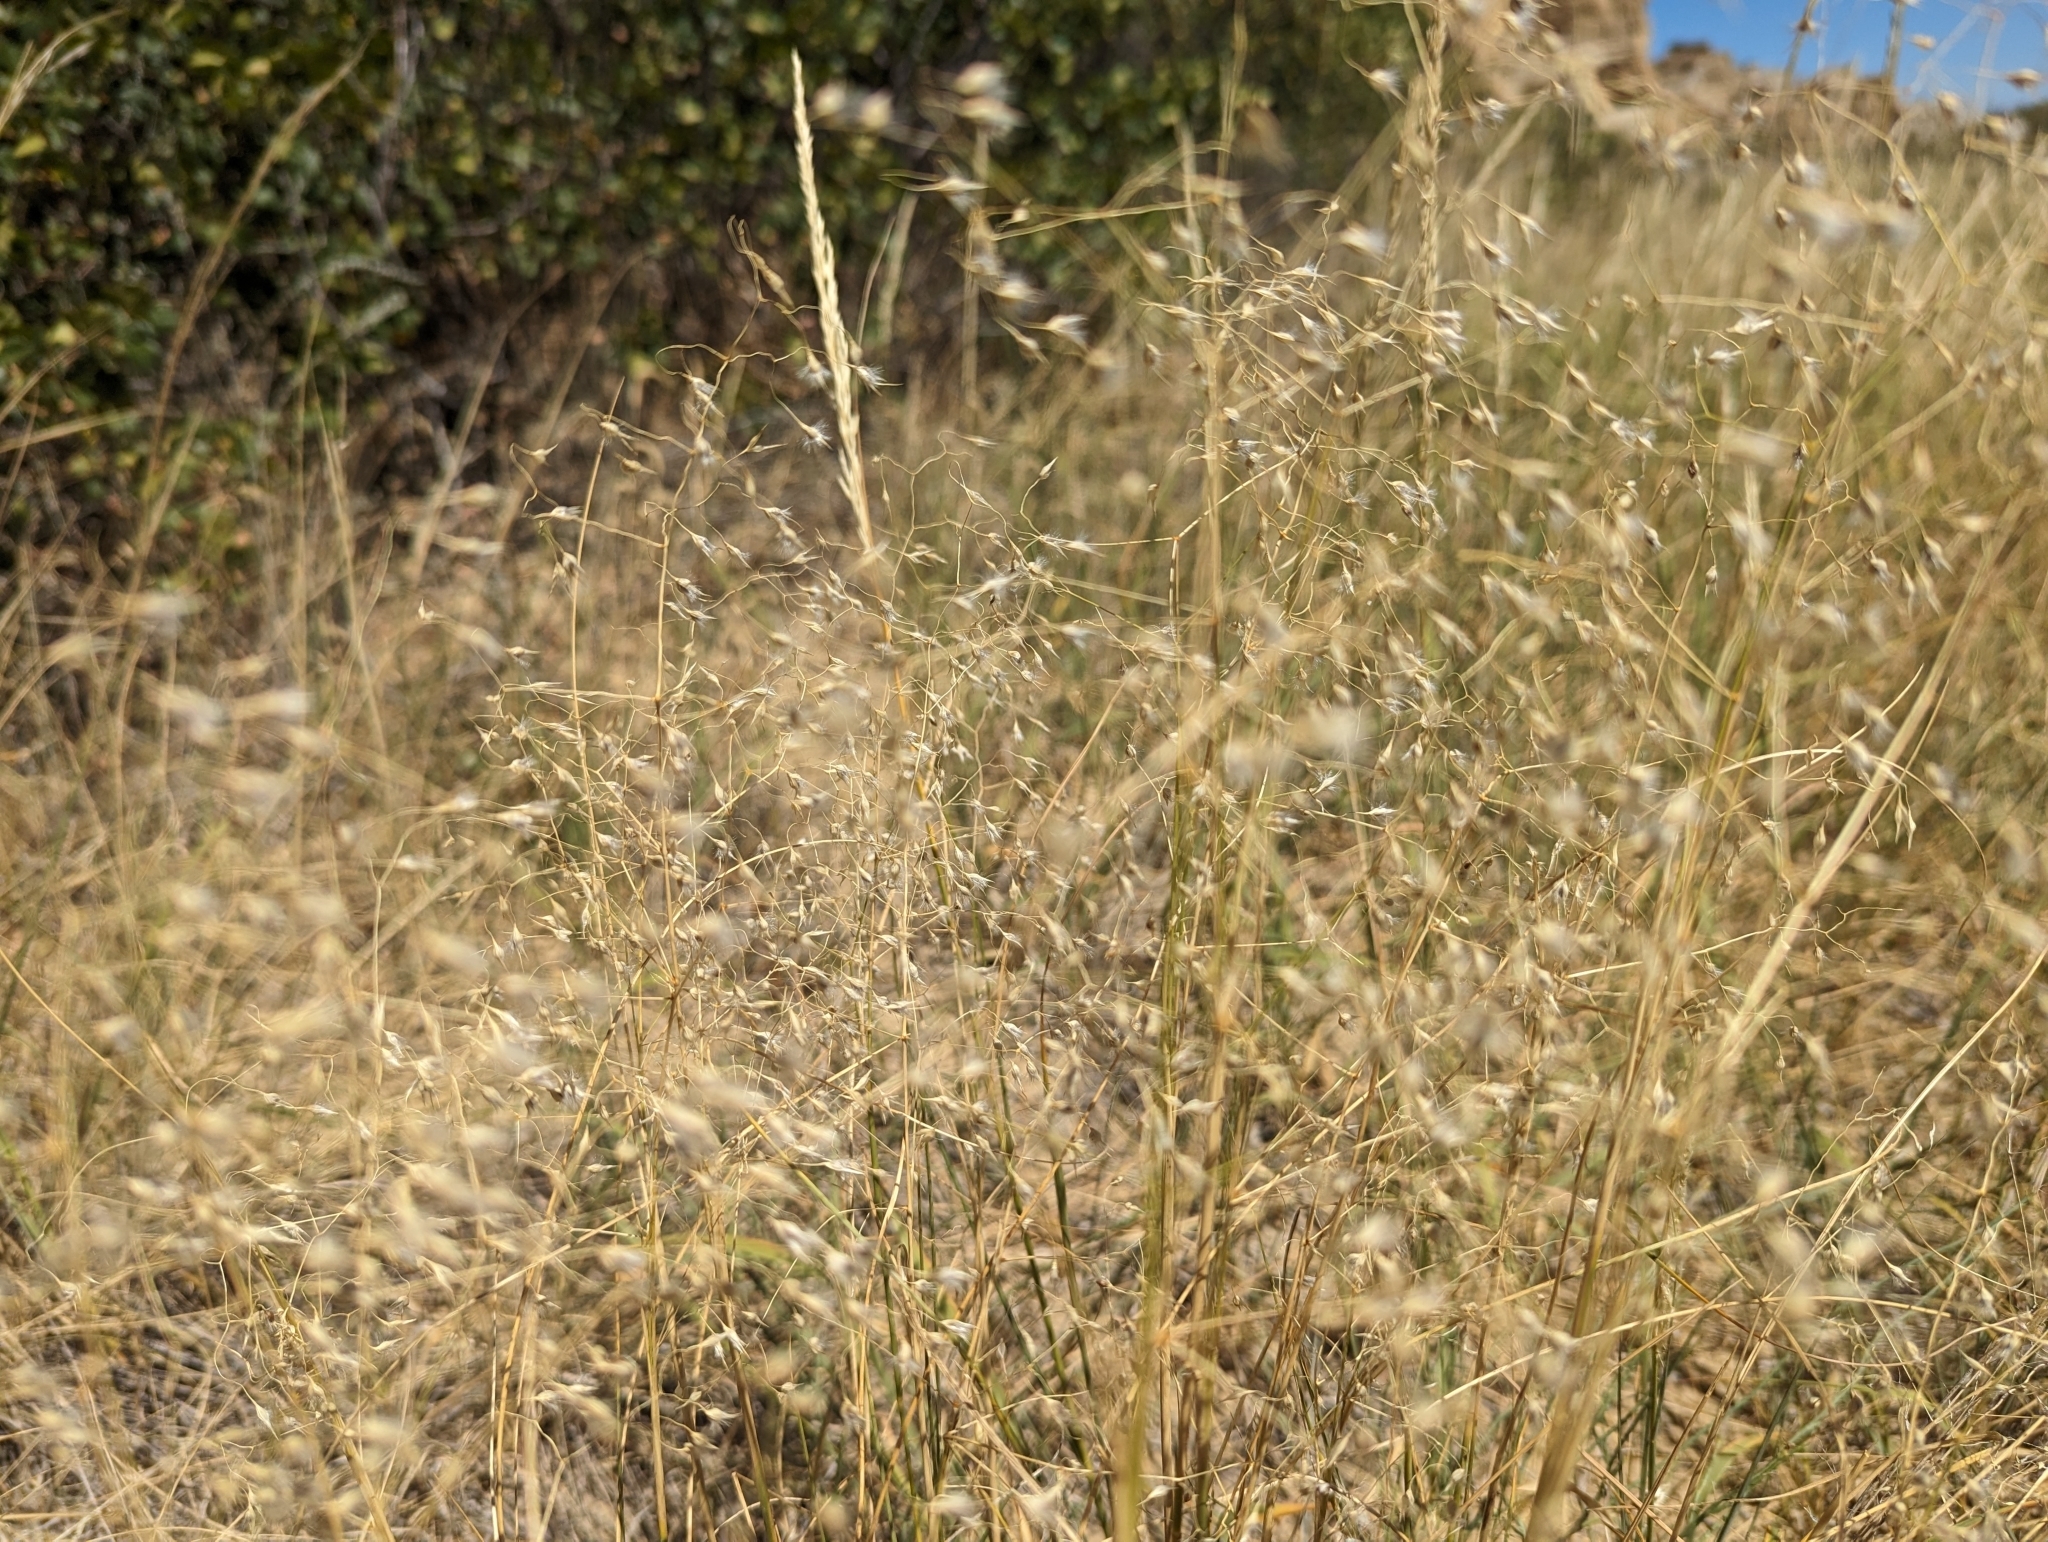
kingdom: Plantae
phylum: Tracheophyta
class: Liliopsida
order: Poales
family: Poaceae
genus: Eriocoma
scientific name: Eriocoma hymenoides
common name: Indian mountain ricegrass
